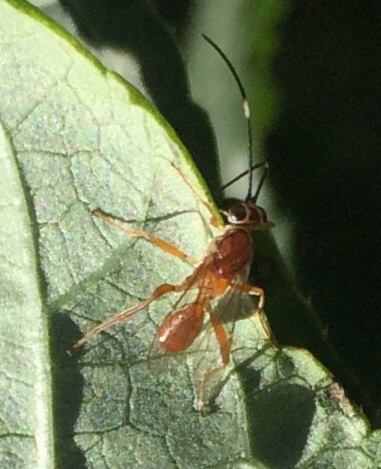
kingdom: Animalia
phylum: Arthropoda
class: Insecta
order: Hymenoptera
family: Ichneumonidae
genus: Pachysomoides
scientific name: Pachysomoides fulvus
